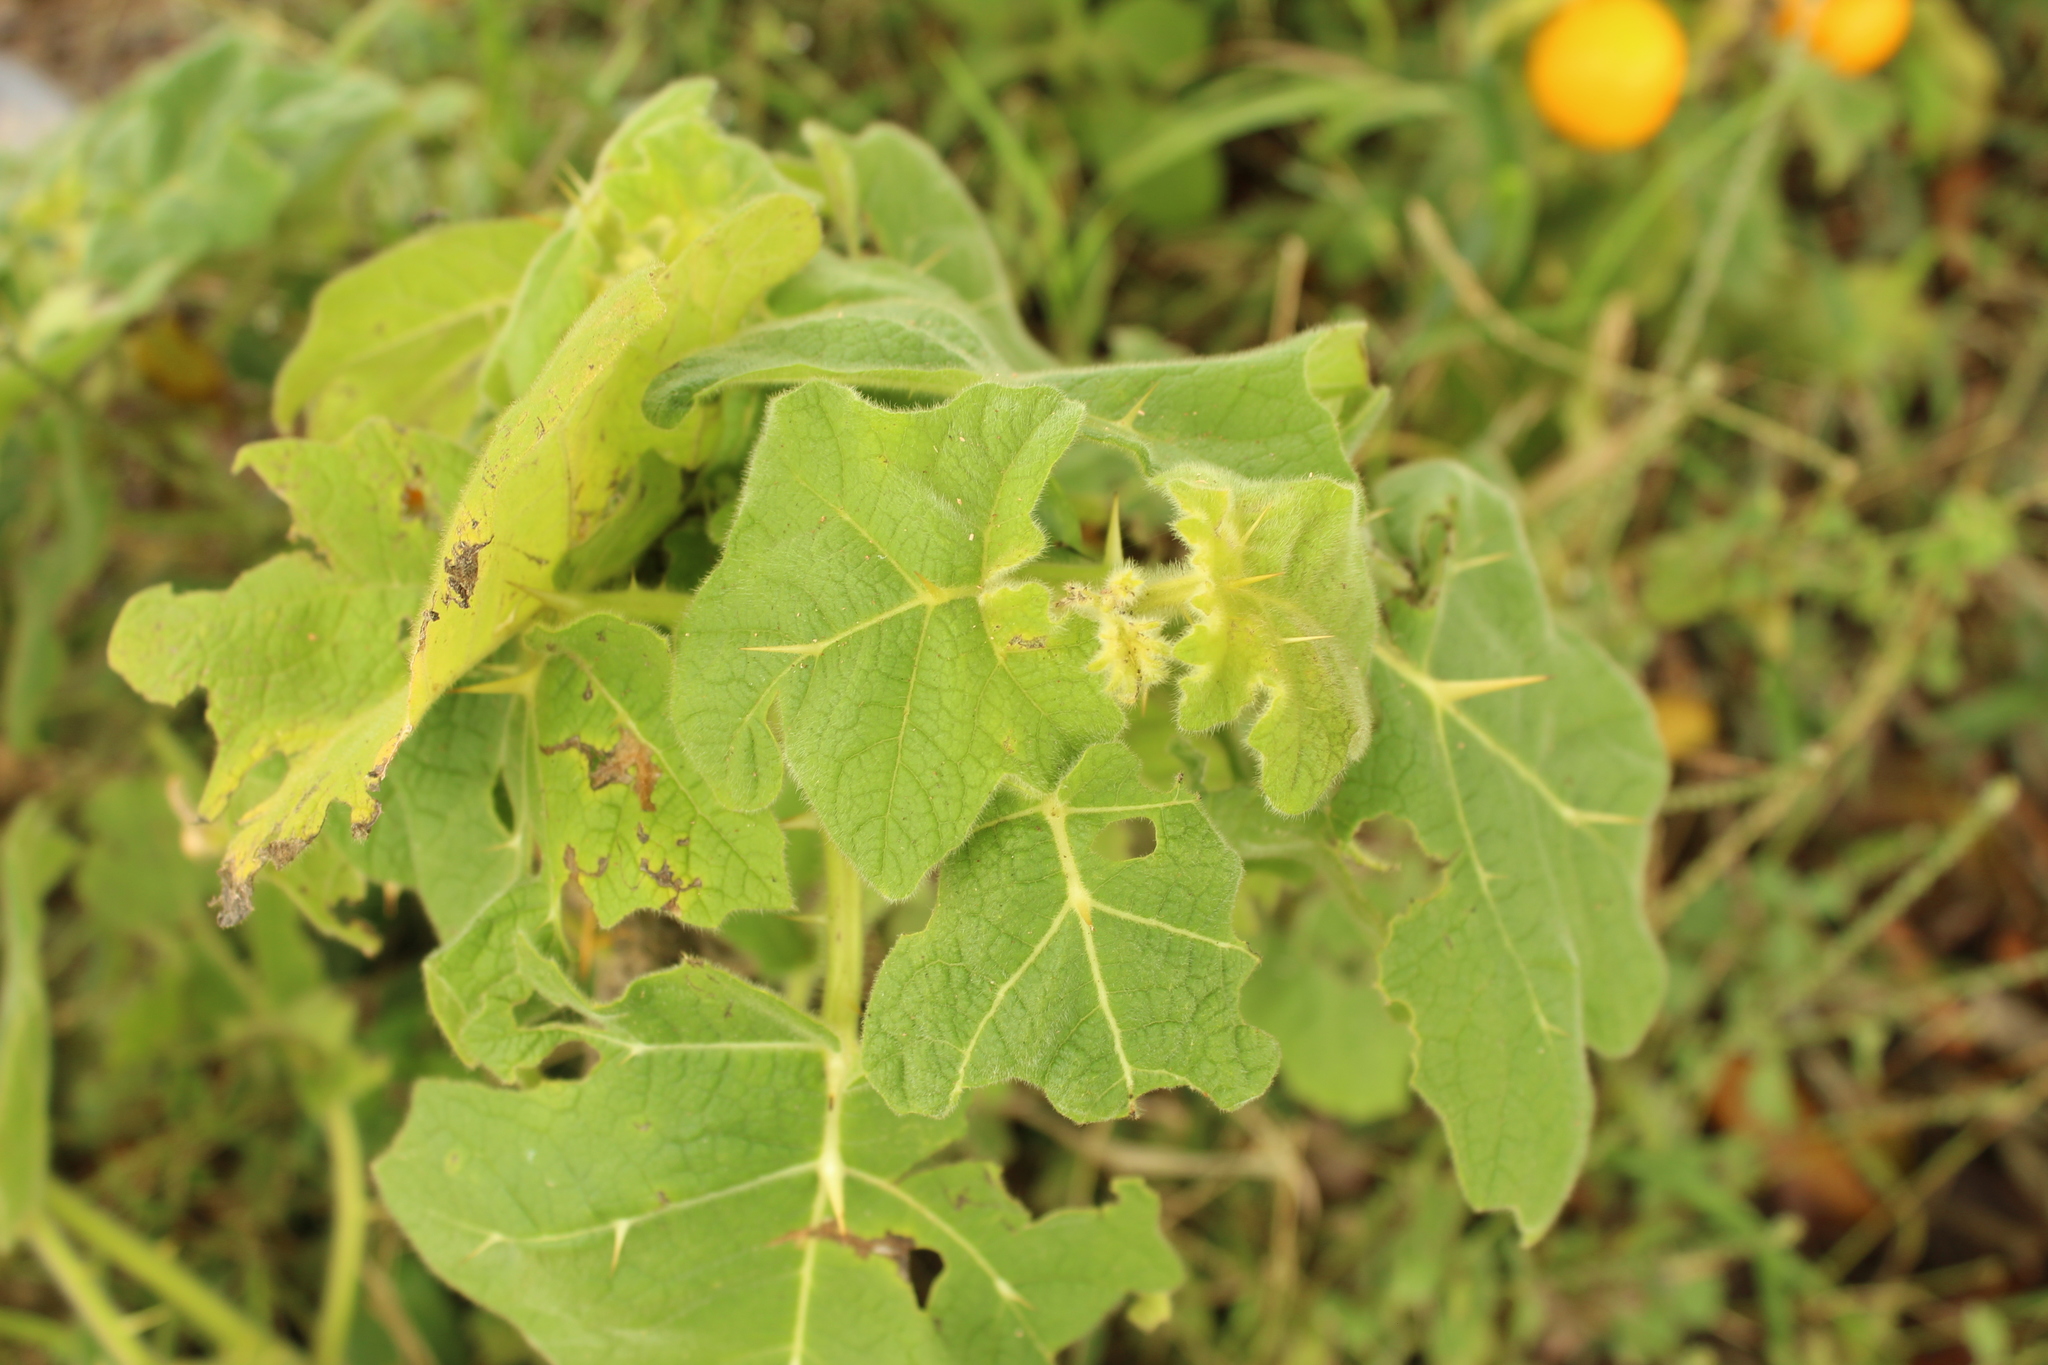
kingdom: Plantae
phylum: Tracheophyta
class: Magnoliopsida
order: Solanales
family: Solanaceae
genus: Solanum
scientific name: Solanum mammosum
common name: Nipple fruit
